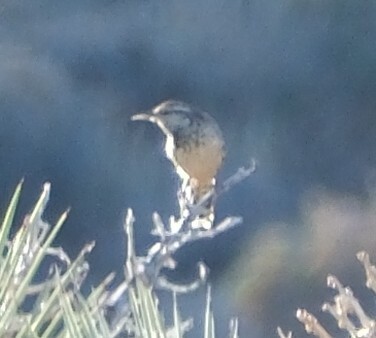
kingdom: Animalia
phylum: Chordata
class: Aves
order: Passeriformes
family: Troglodytidae
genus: Campylorhynchus
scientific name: Campylorhynchus brunneicapillus
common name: Cactus wren
